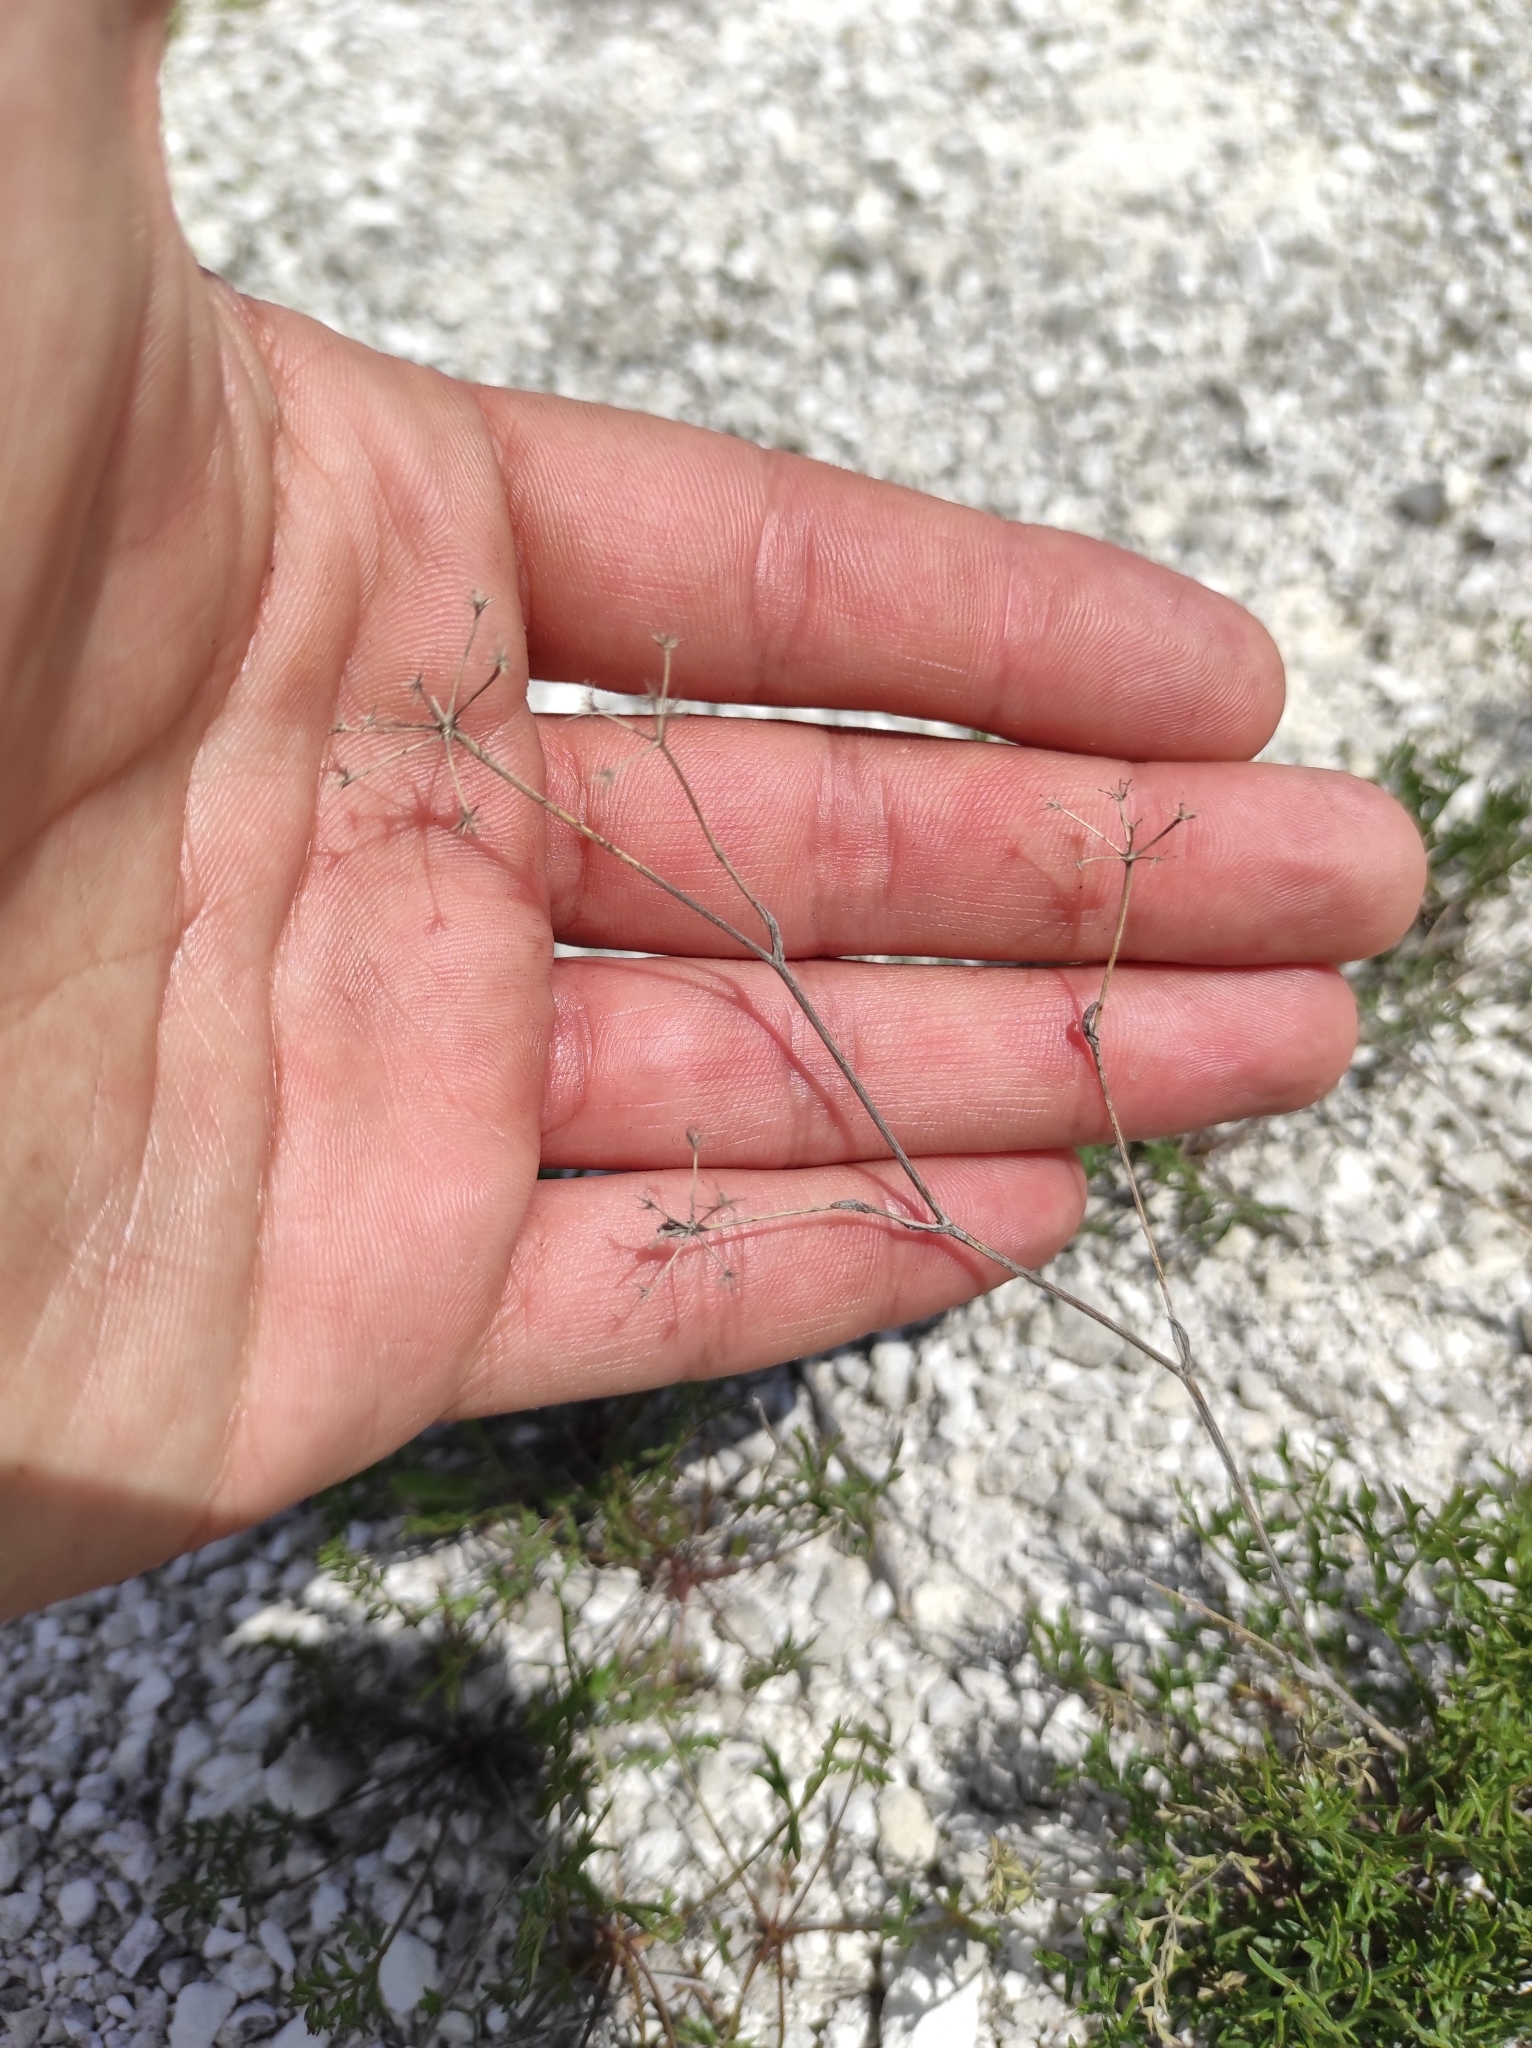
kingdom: Plantae
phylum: Tracheophyta
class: Magnoliopsida
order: Apiales
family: Apiaceae
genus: Pimpinella
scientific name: Pimpinella tragium
